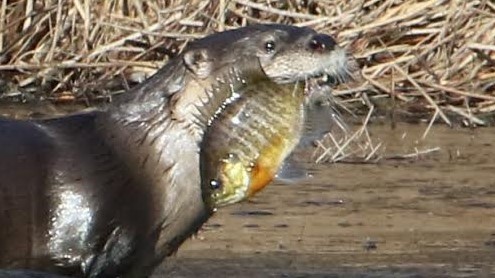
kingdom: Animalia
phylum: Chordata
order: Perciformes
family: Centrarchidae
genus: Lepomis
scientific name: Lepomis macrochirus
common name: Bluegill
